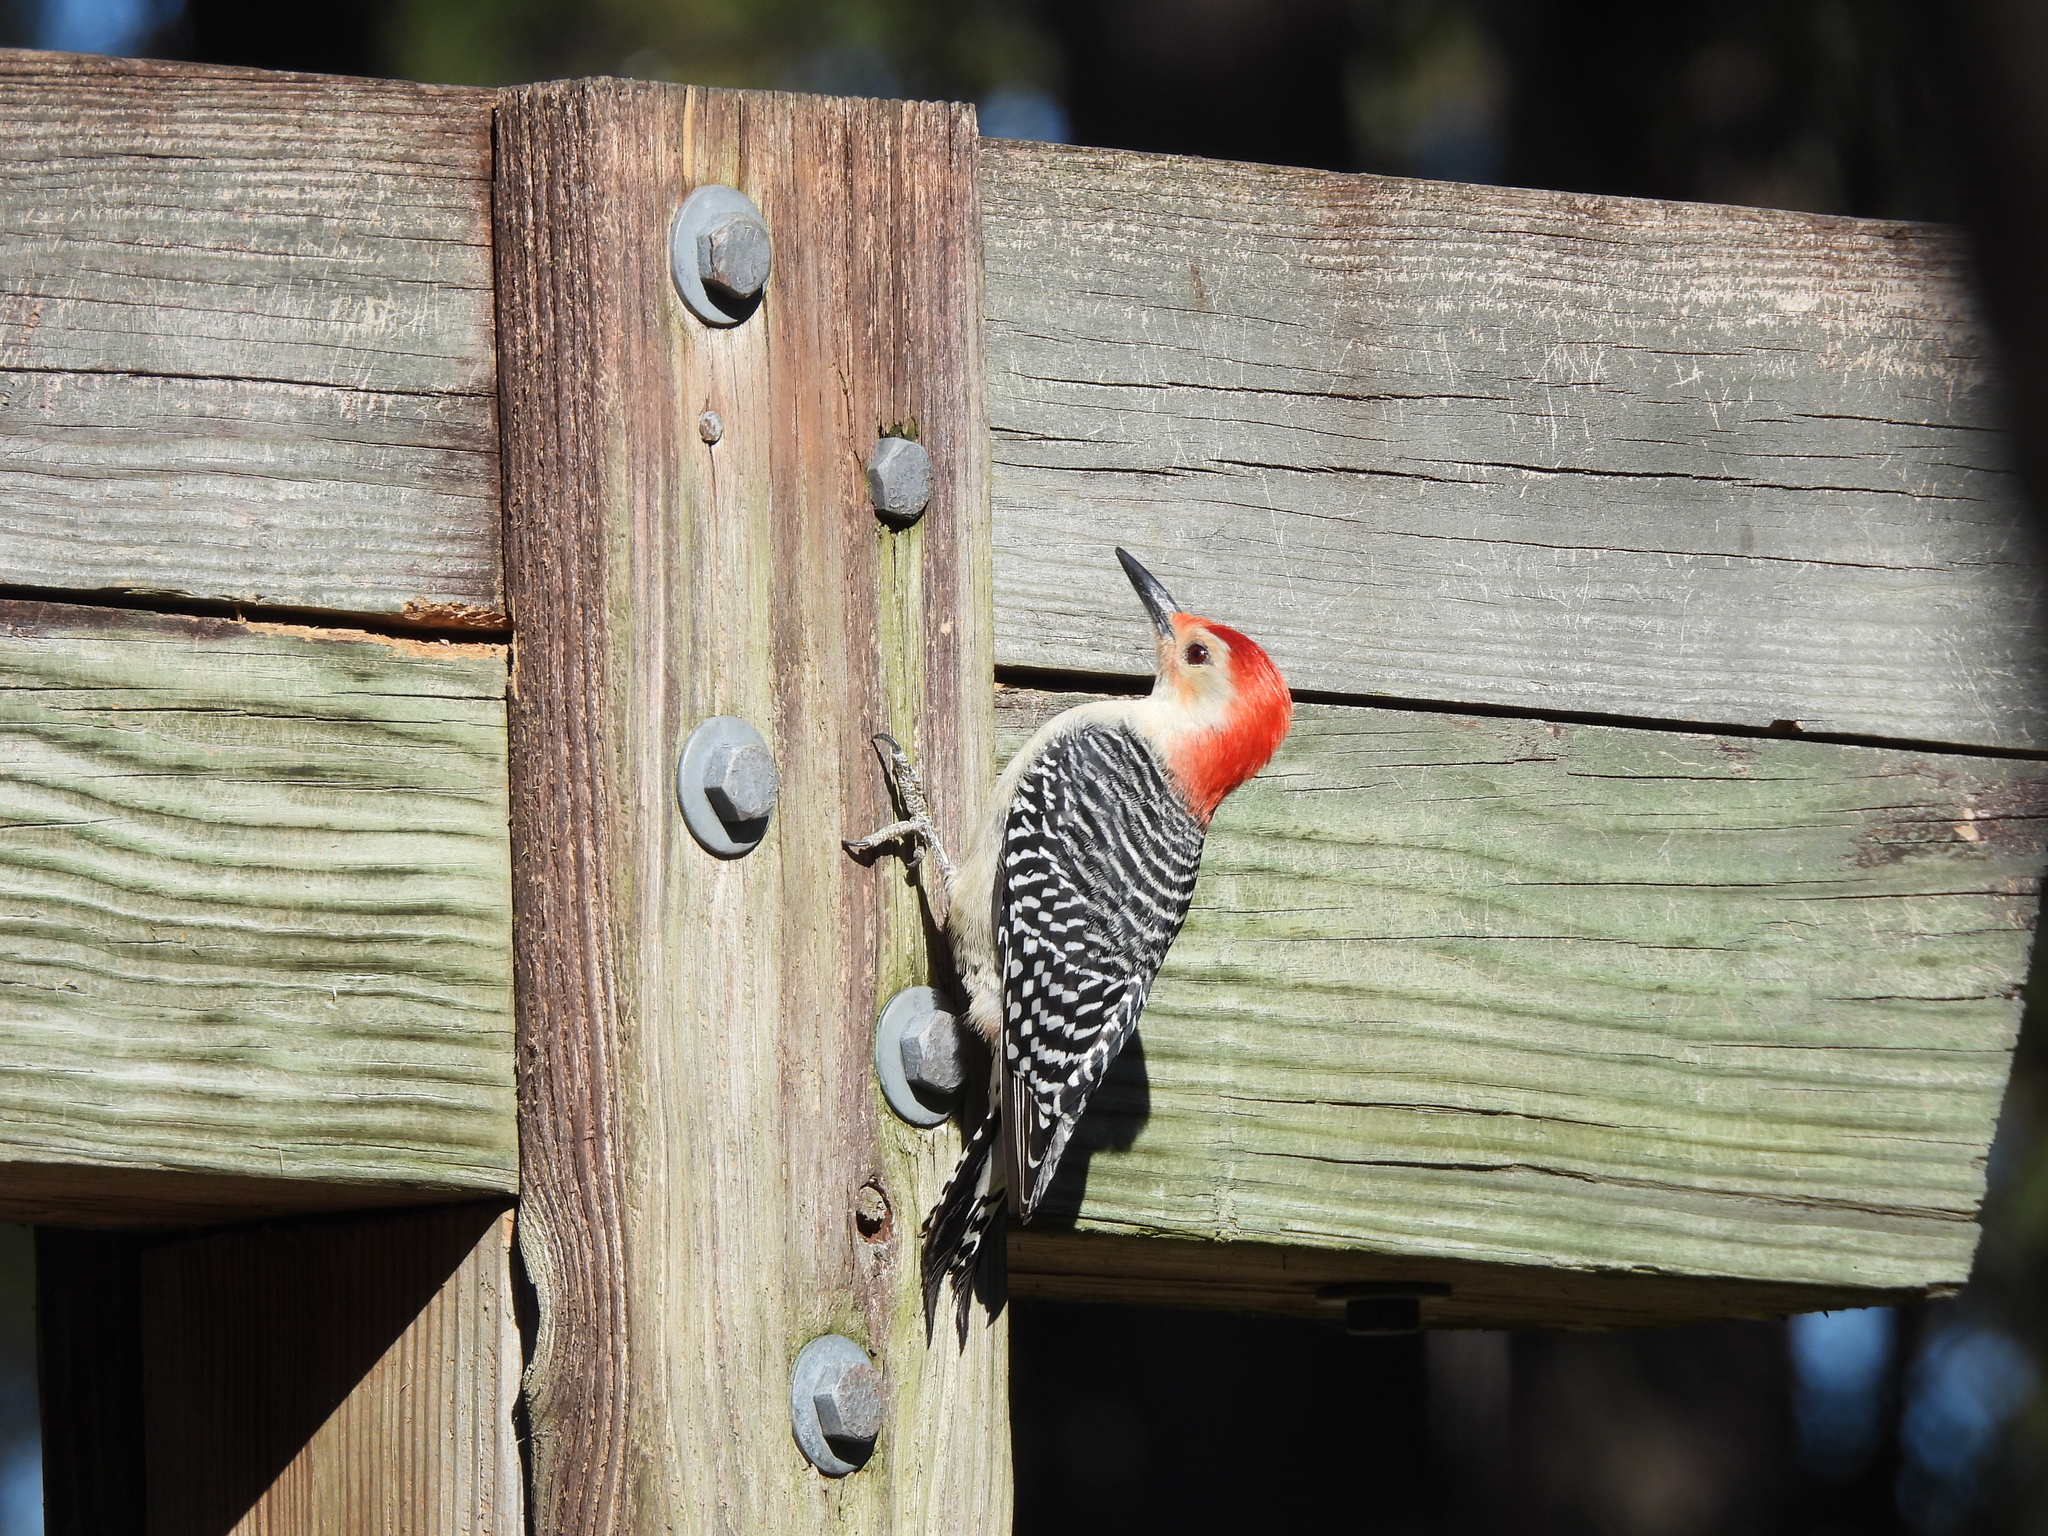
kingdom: Animalia
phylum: Chordata
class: Aves
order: Piciformes
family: Picidae
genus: Melanerpes
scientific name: Melanerpes carolinus
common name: Red-bellied woodpecker
